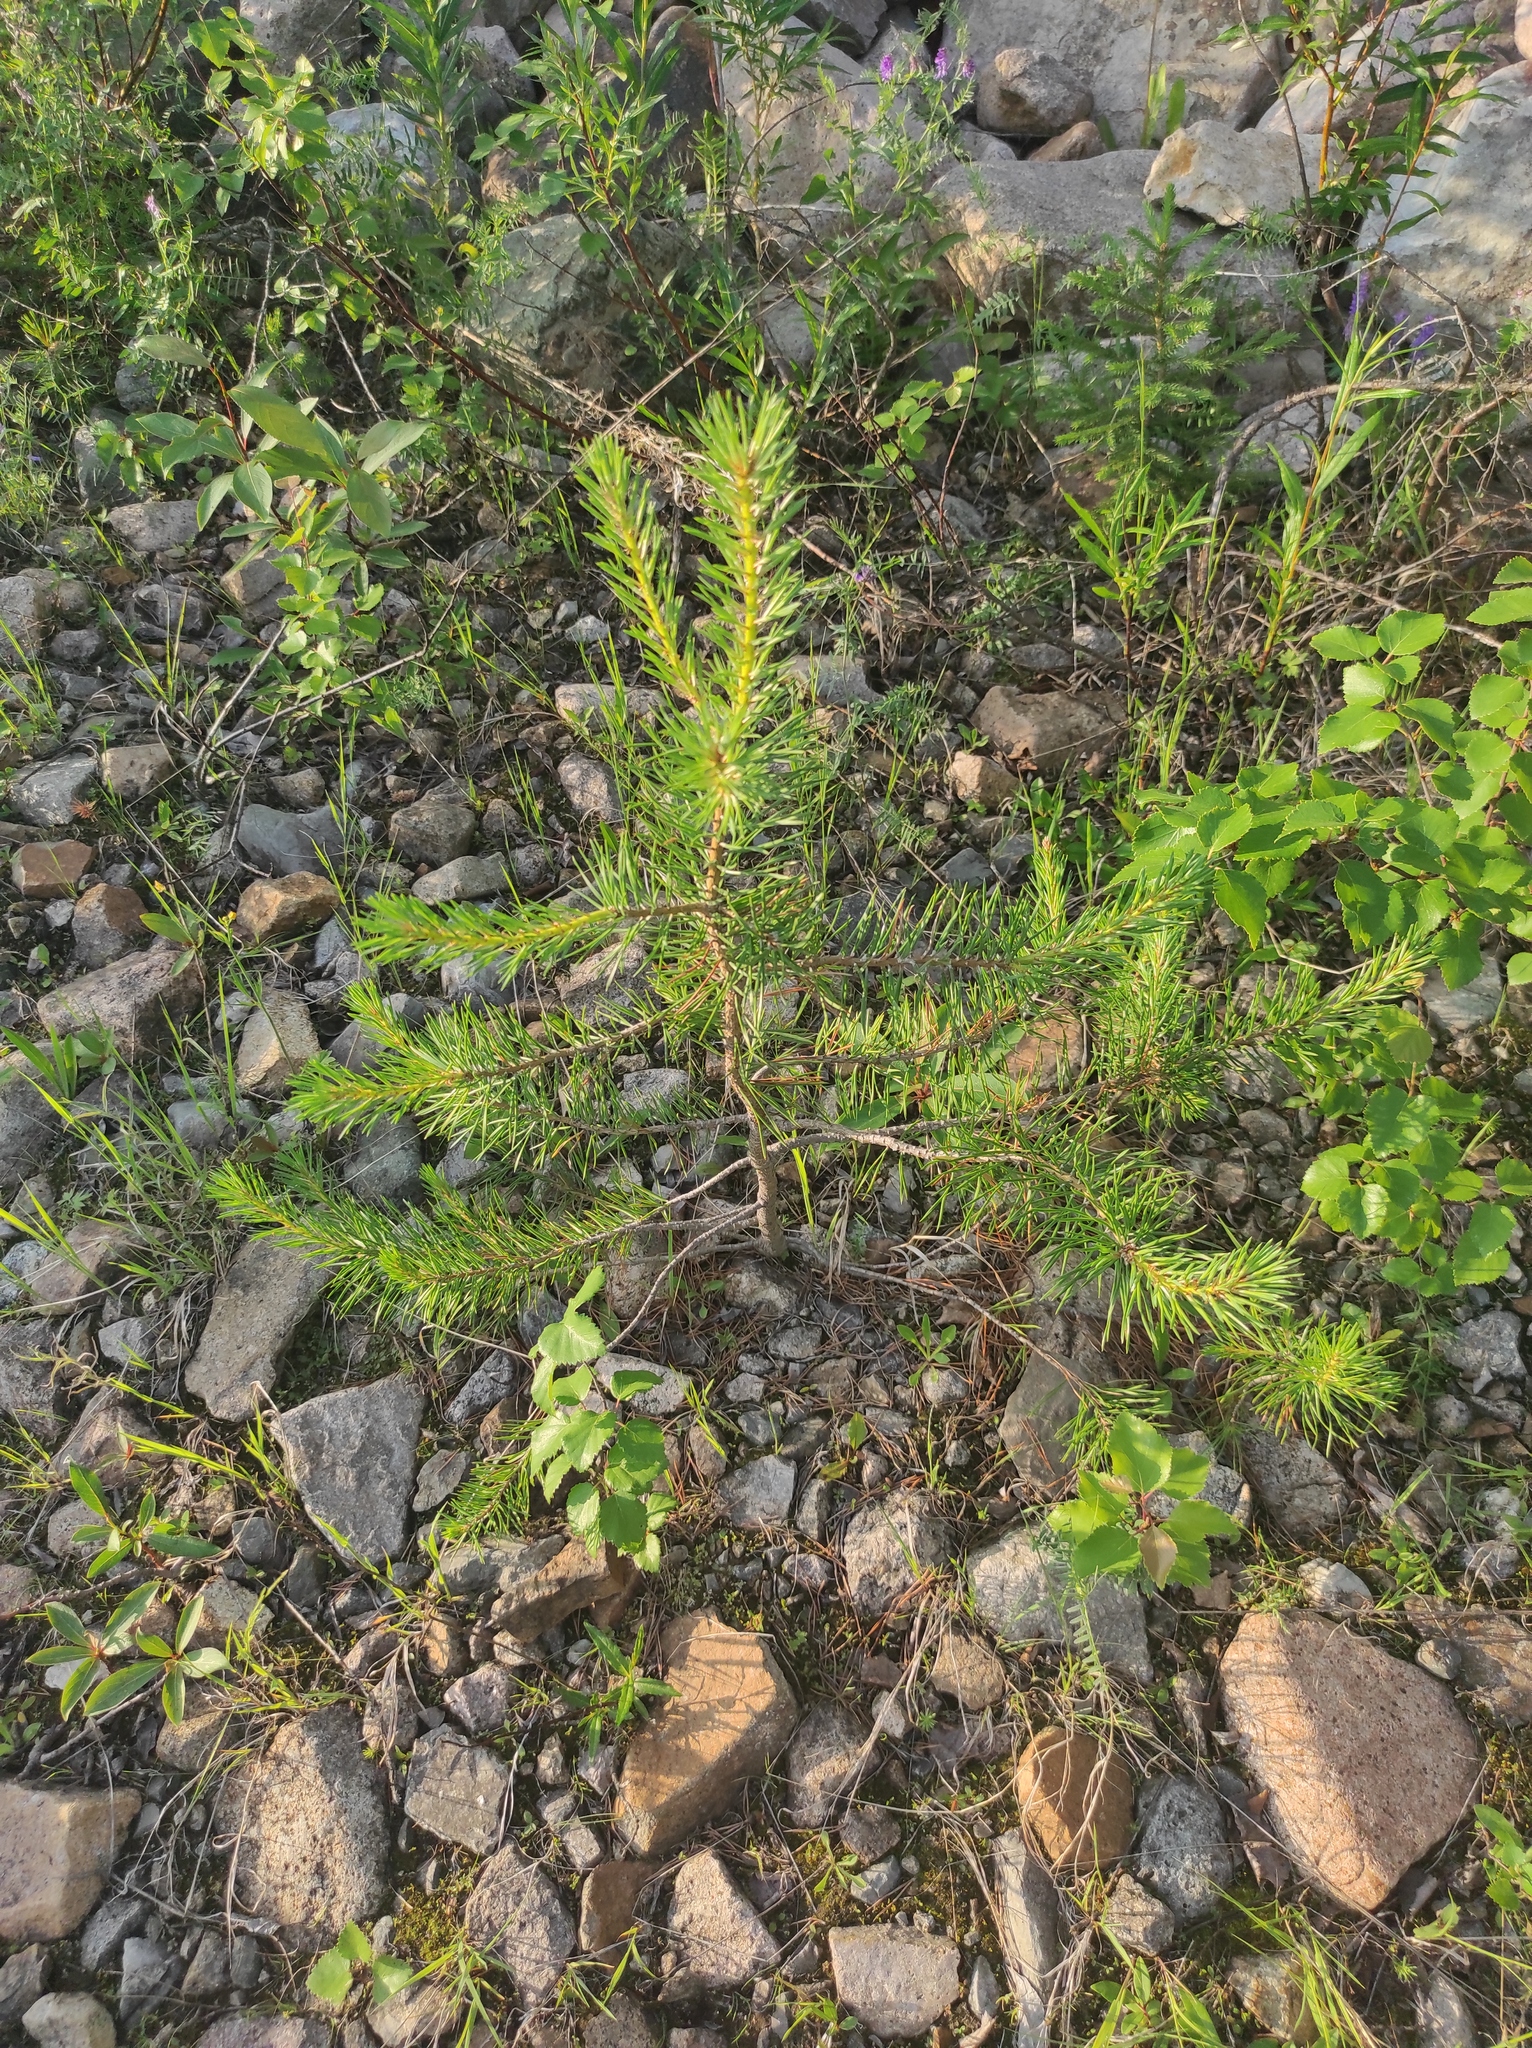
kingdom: Plantae
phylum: Tracheophyta
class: Pinopsida
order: Pinales
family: Pinaceae
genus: Pinus
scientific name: Pinus sylvestris
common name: Scots pine
